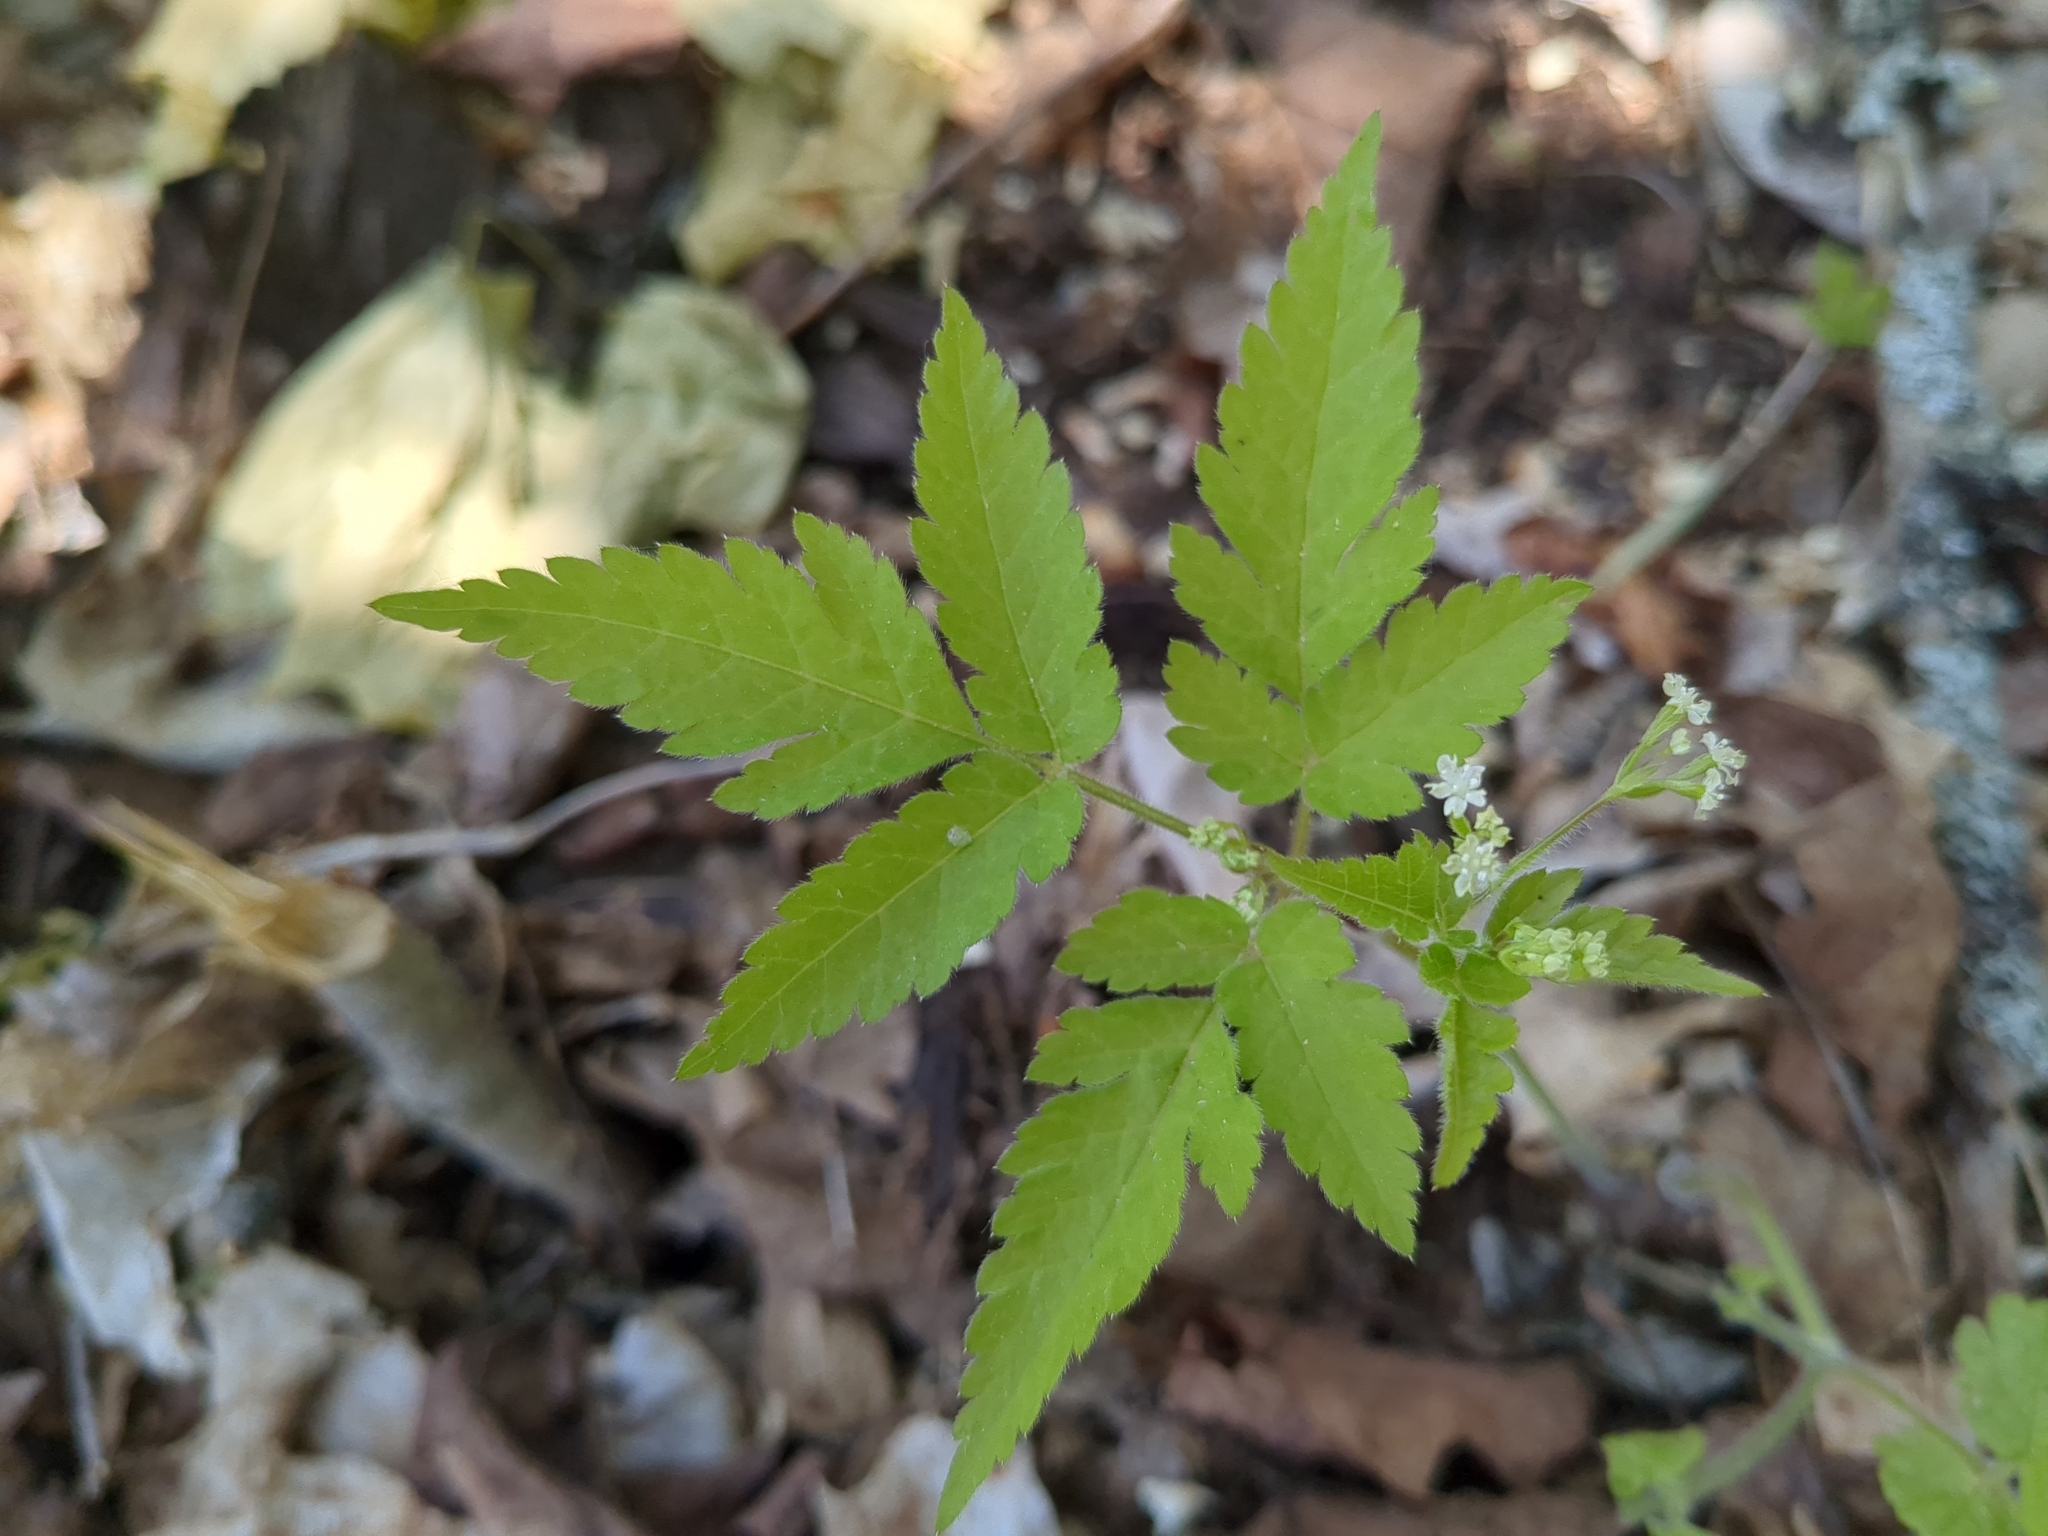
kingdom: Plantae
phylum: Tracheophyta
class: Magnoliopsida
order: Apiales
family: Apiaceae
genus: Osmorhiza
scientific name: Osmorhiza claytonii
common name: Hairy sweet cicely
